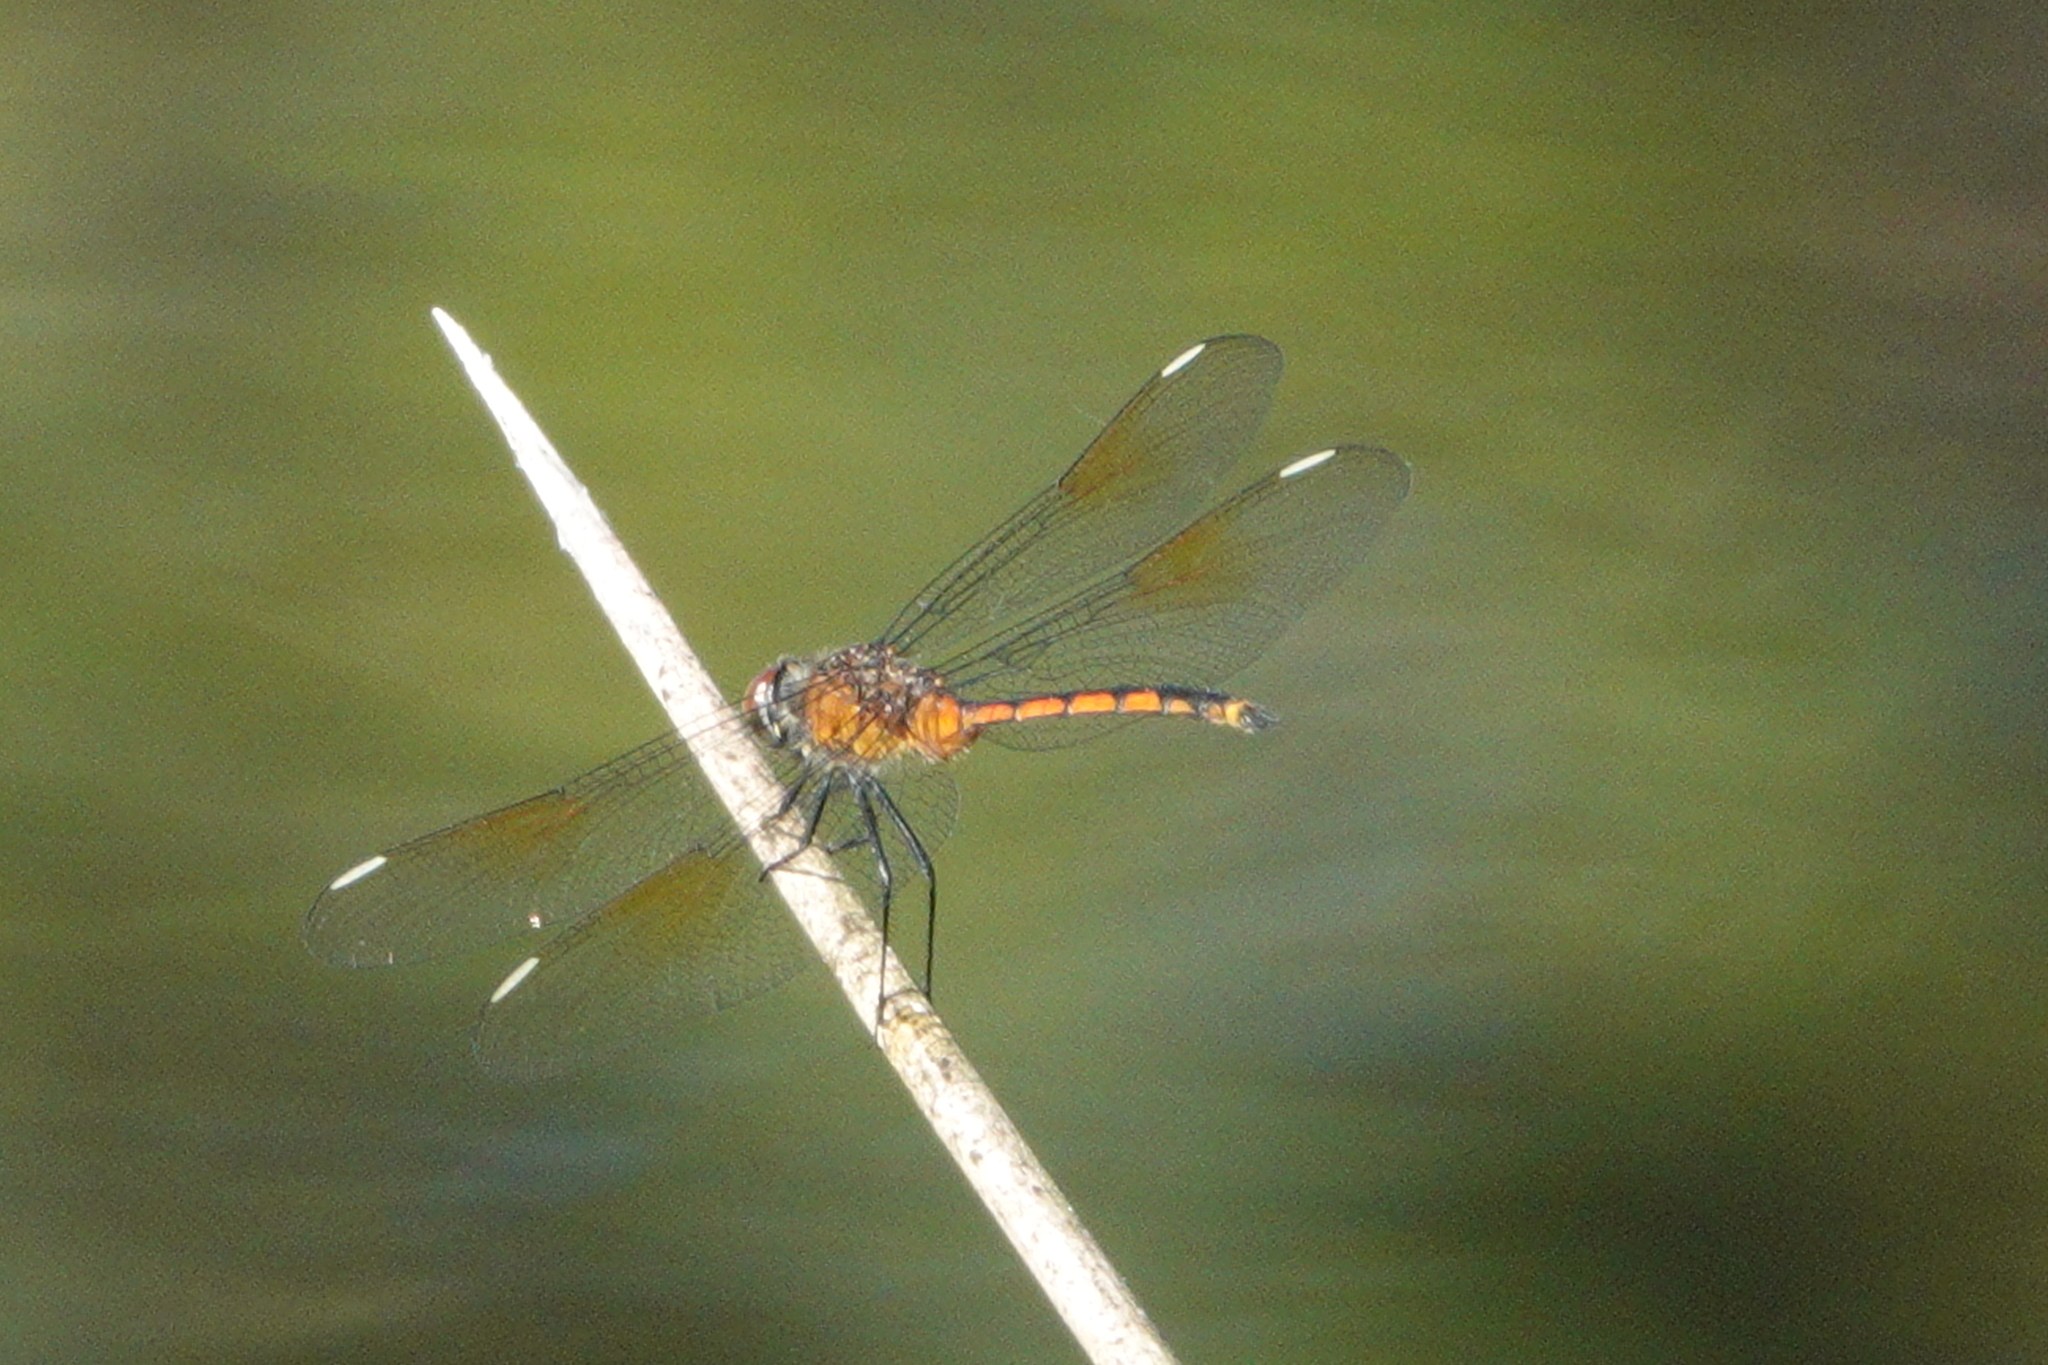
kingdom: Animalia
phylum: Arthropoda
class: Insecta
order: Odonata
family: Libellulidae
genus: Brachymesia
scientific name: Brachymesia gravida
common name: Four-spotted pennant
